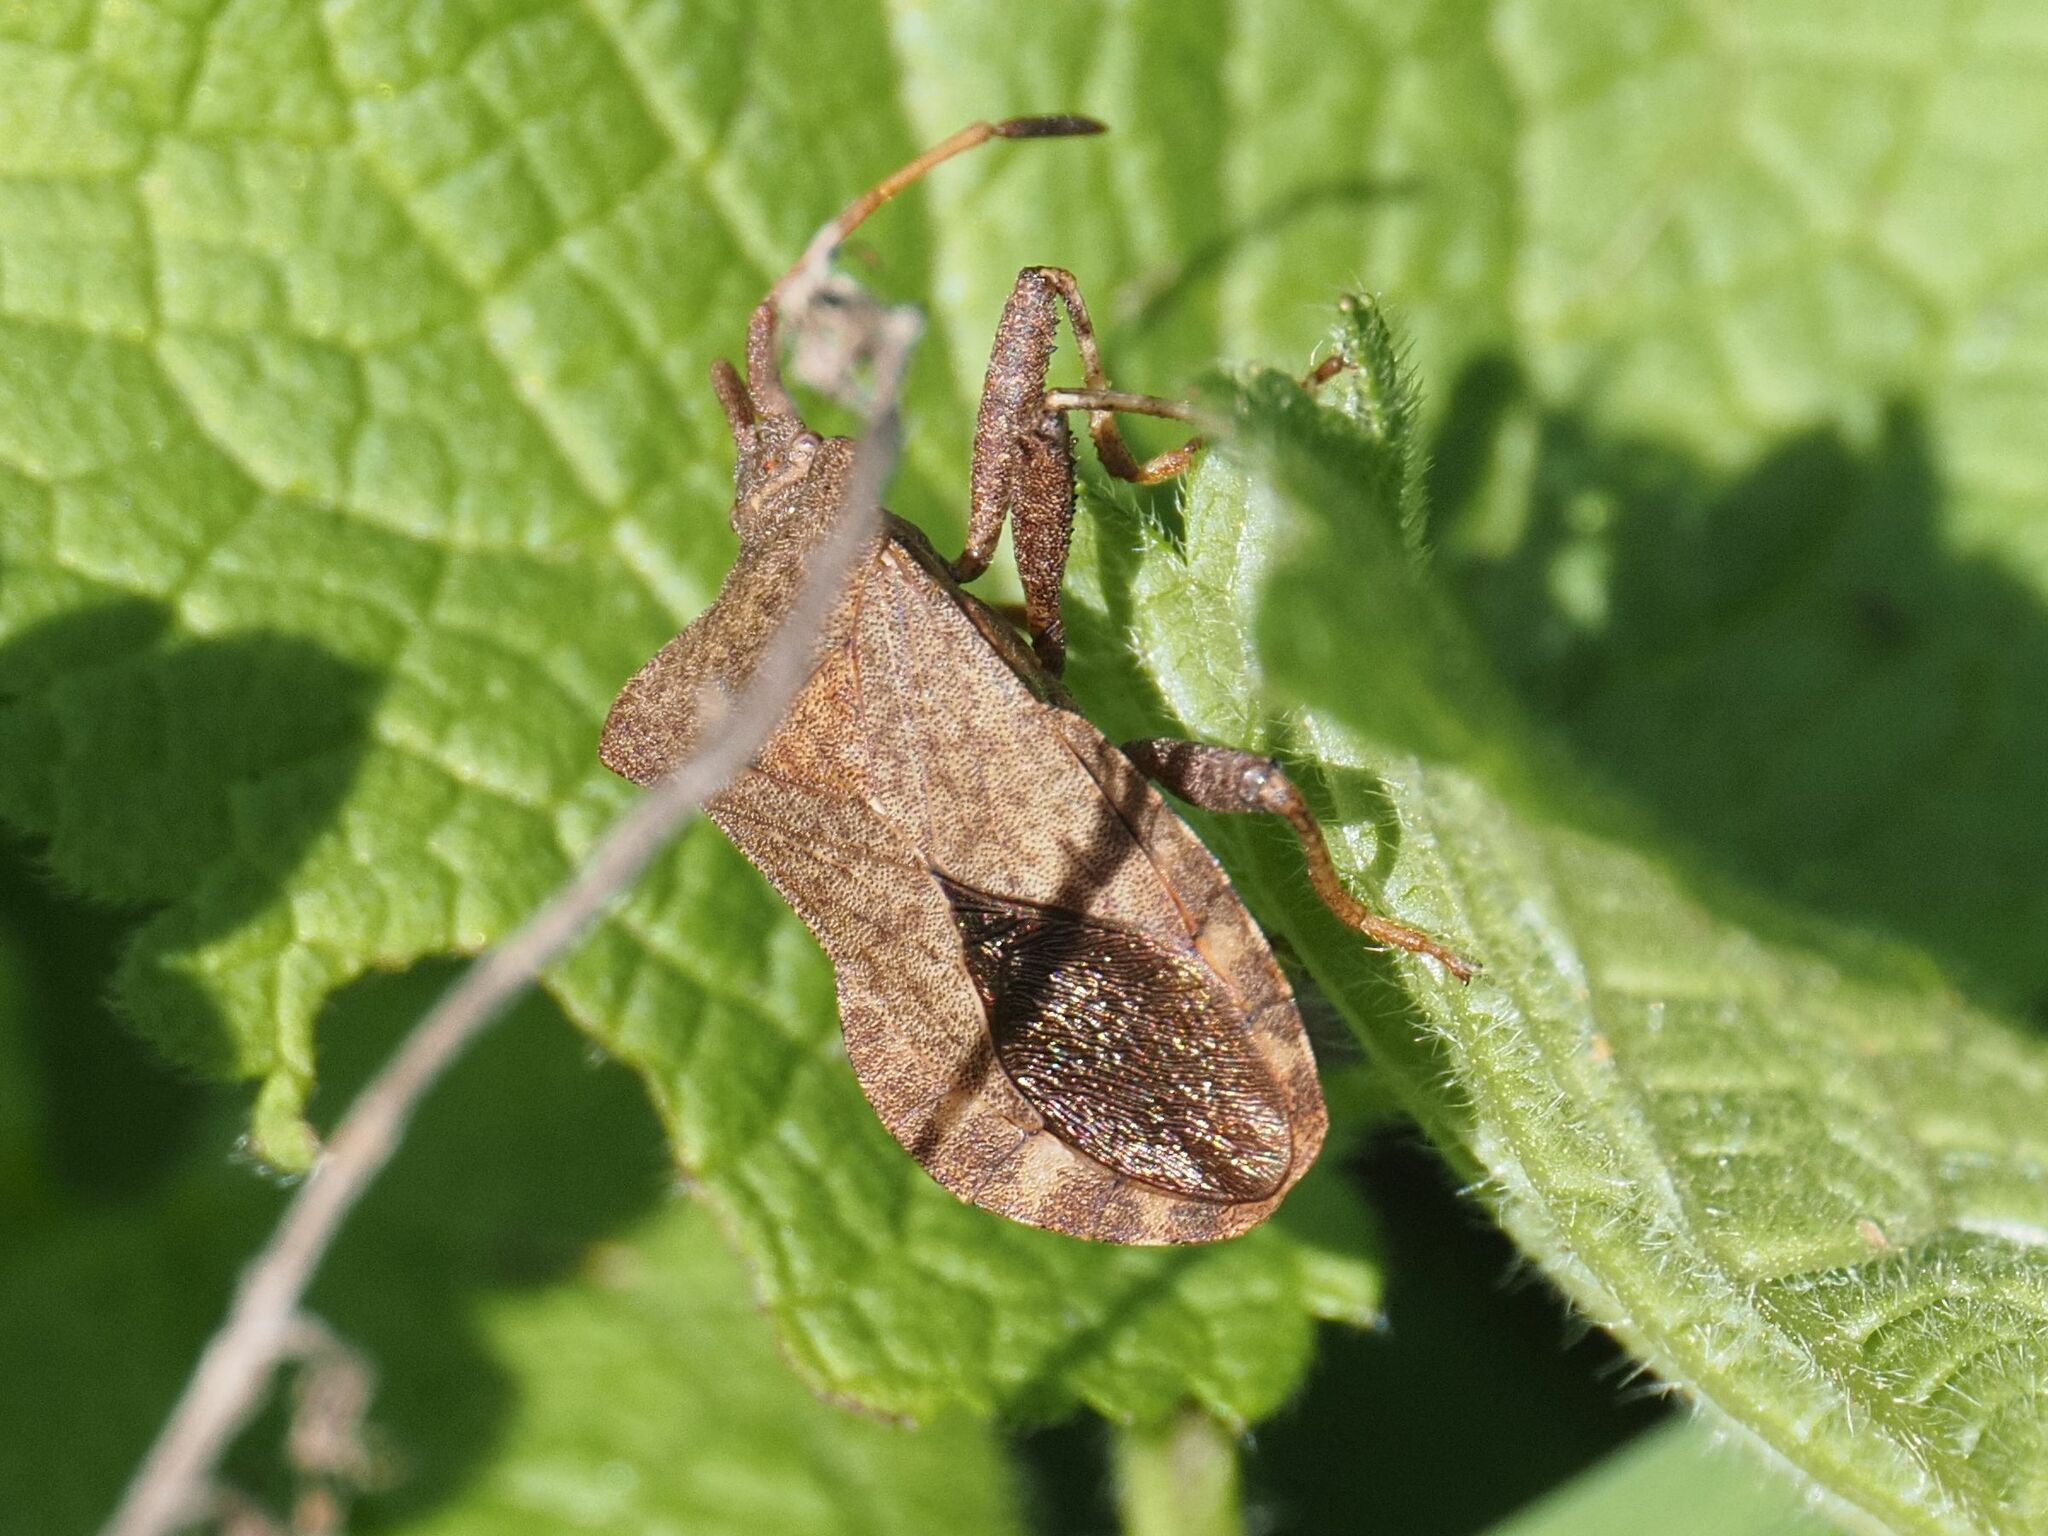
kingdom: Animalia
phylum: Arthropoda
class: Insecta
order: Hemiptera
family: Coreidae
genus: Coreus
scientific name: Coreus marginatus
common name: Dock bug
